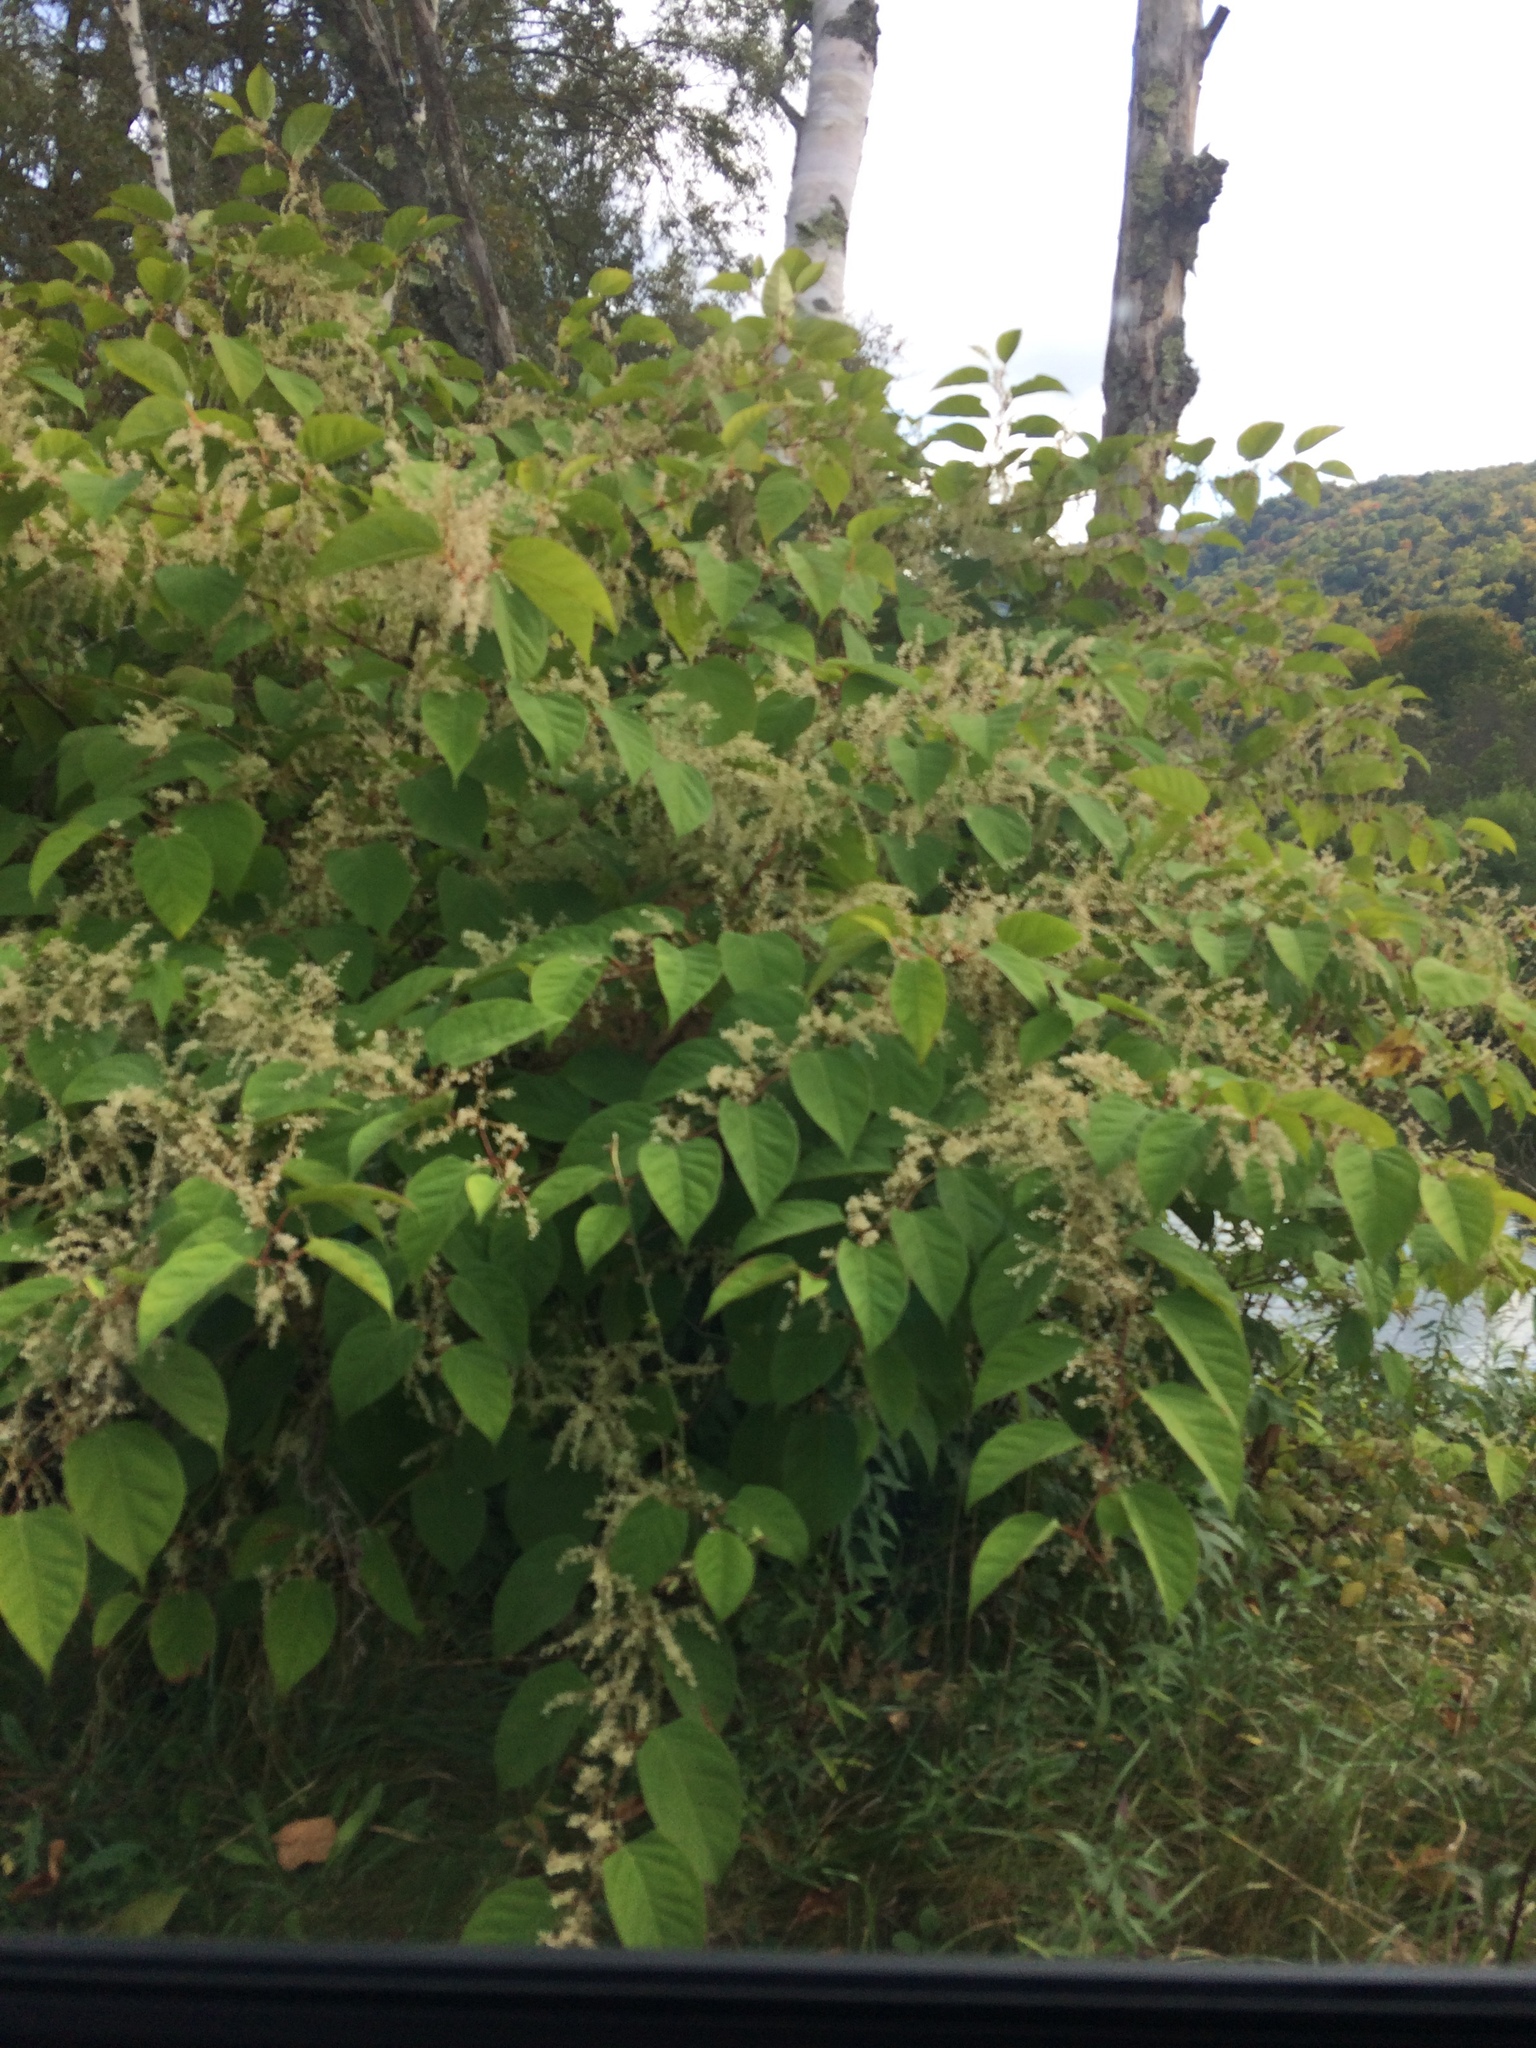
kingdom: Plantae
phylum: Tracheophyta
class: Magnoliopsida
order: Caryophyllales
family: Polygonaceae
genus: Reynoutria
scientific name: Reynoutria japonica
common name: Japanese knotweed
